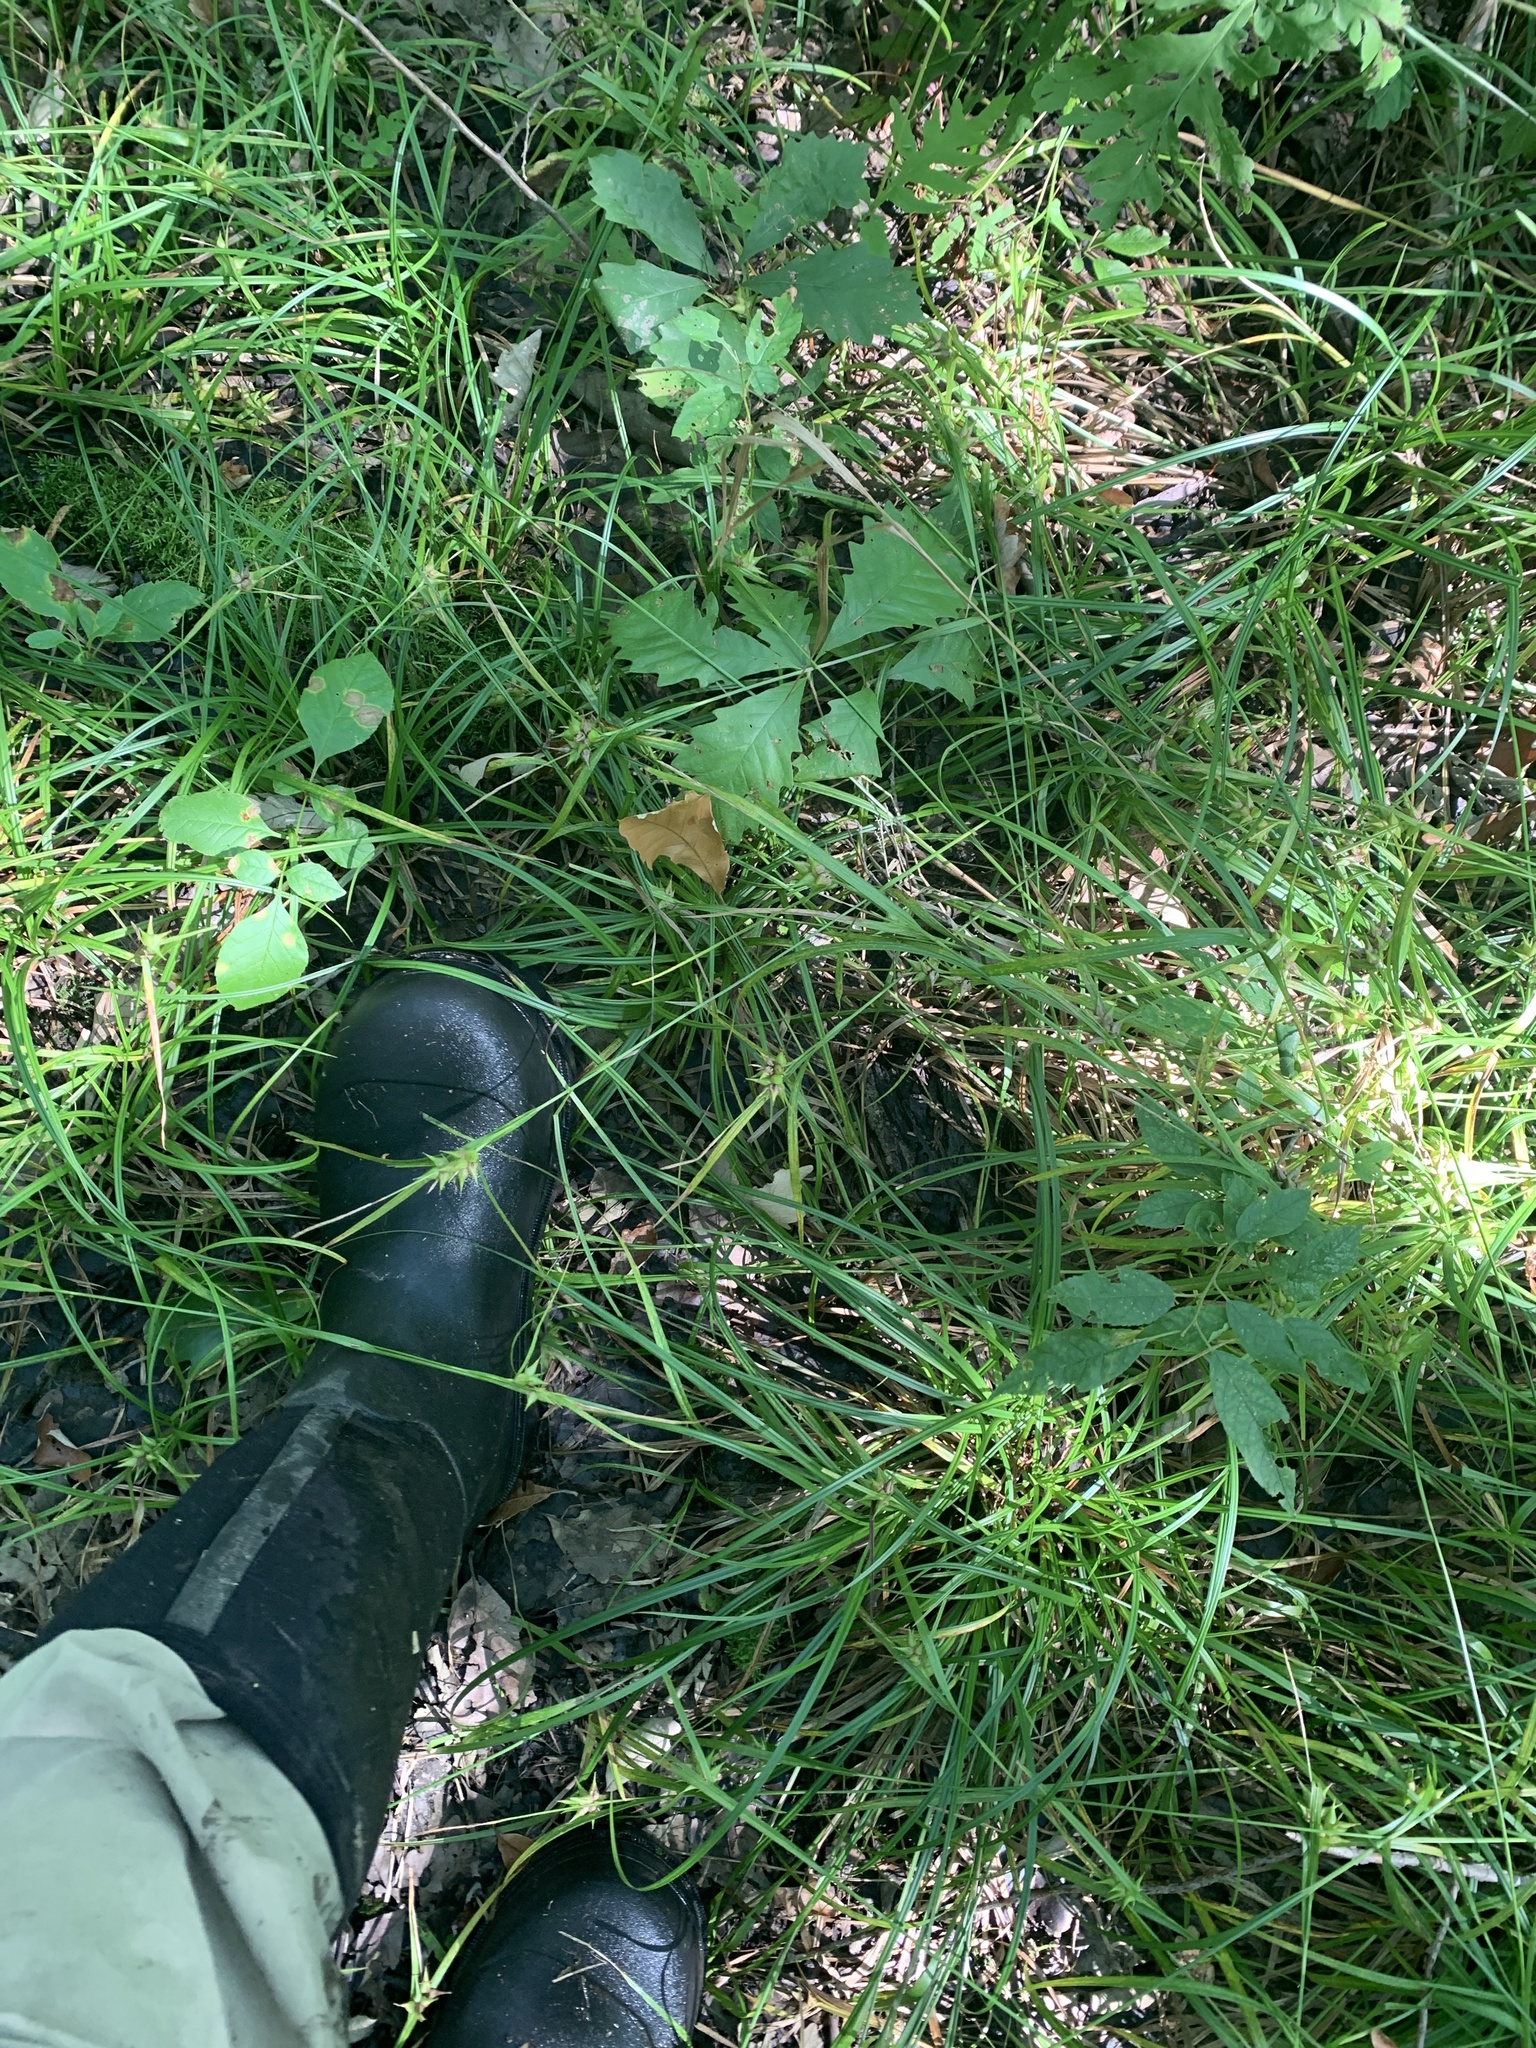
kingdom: Plantae
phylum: Tracheophyta
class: Liliopsida
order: Poales
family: Cyperaceae
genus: Carex
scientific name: Carex intumescens
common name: Greater bladder sedge
